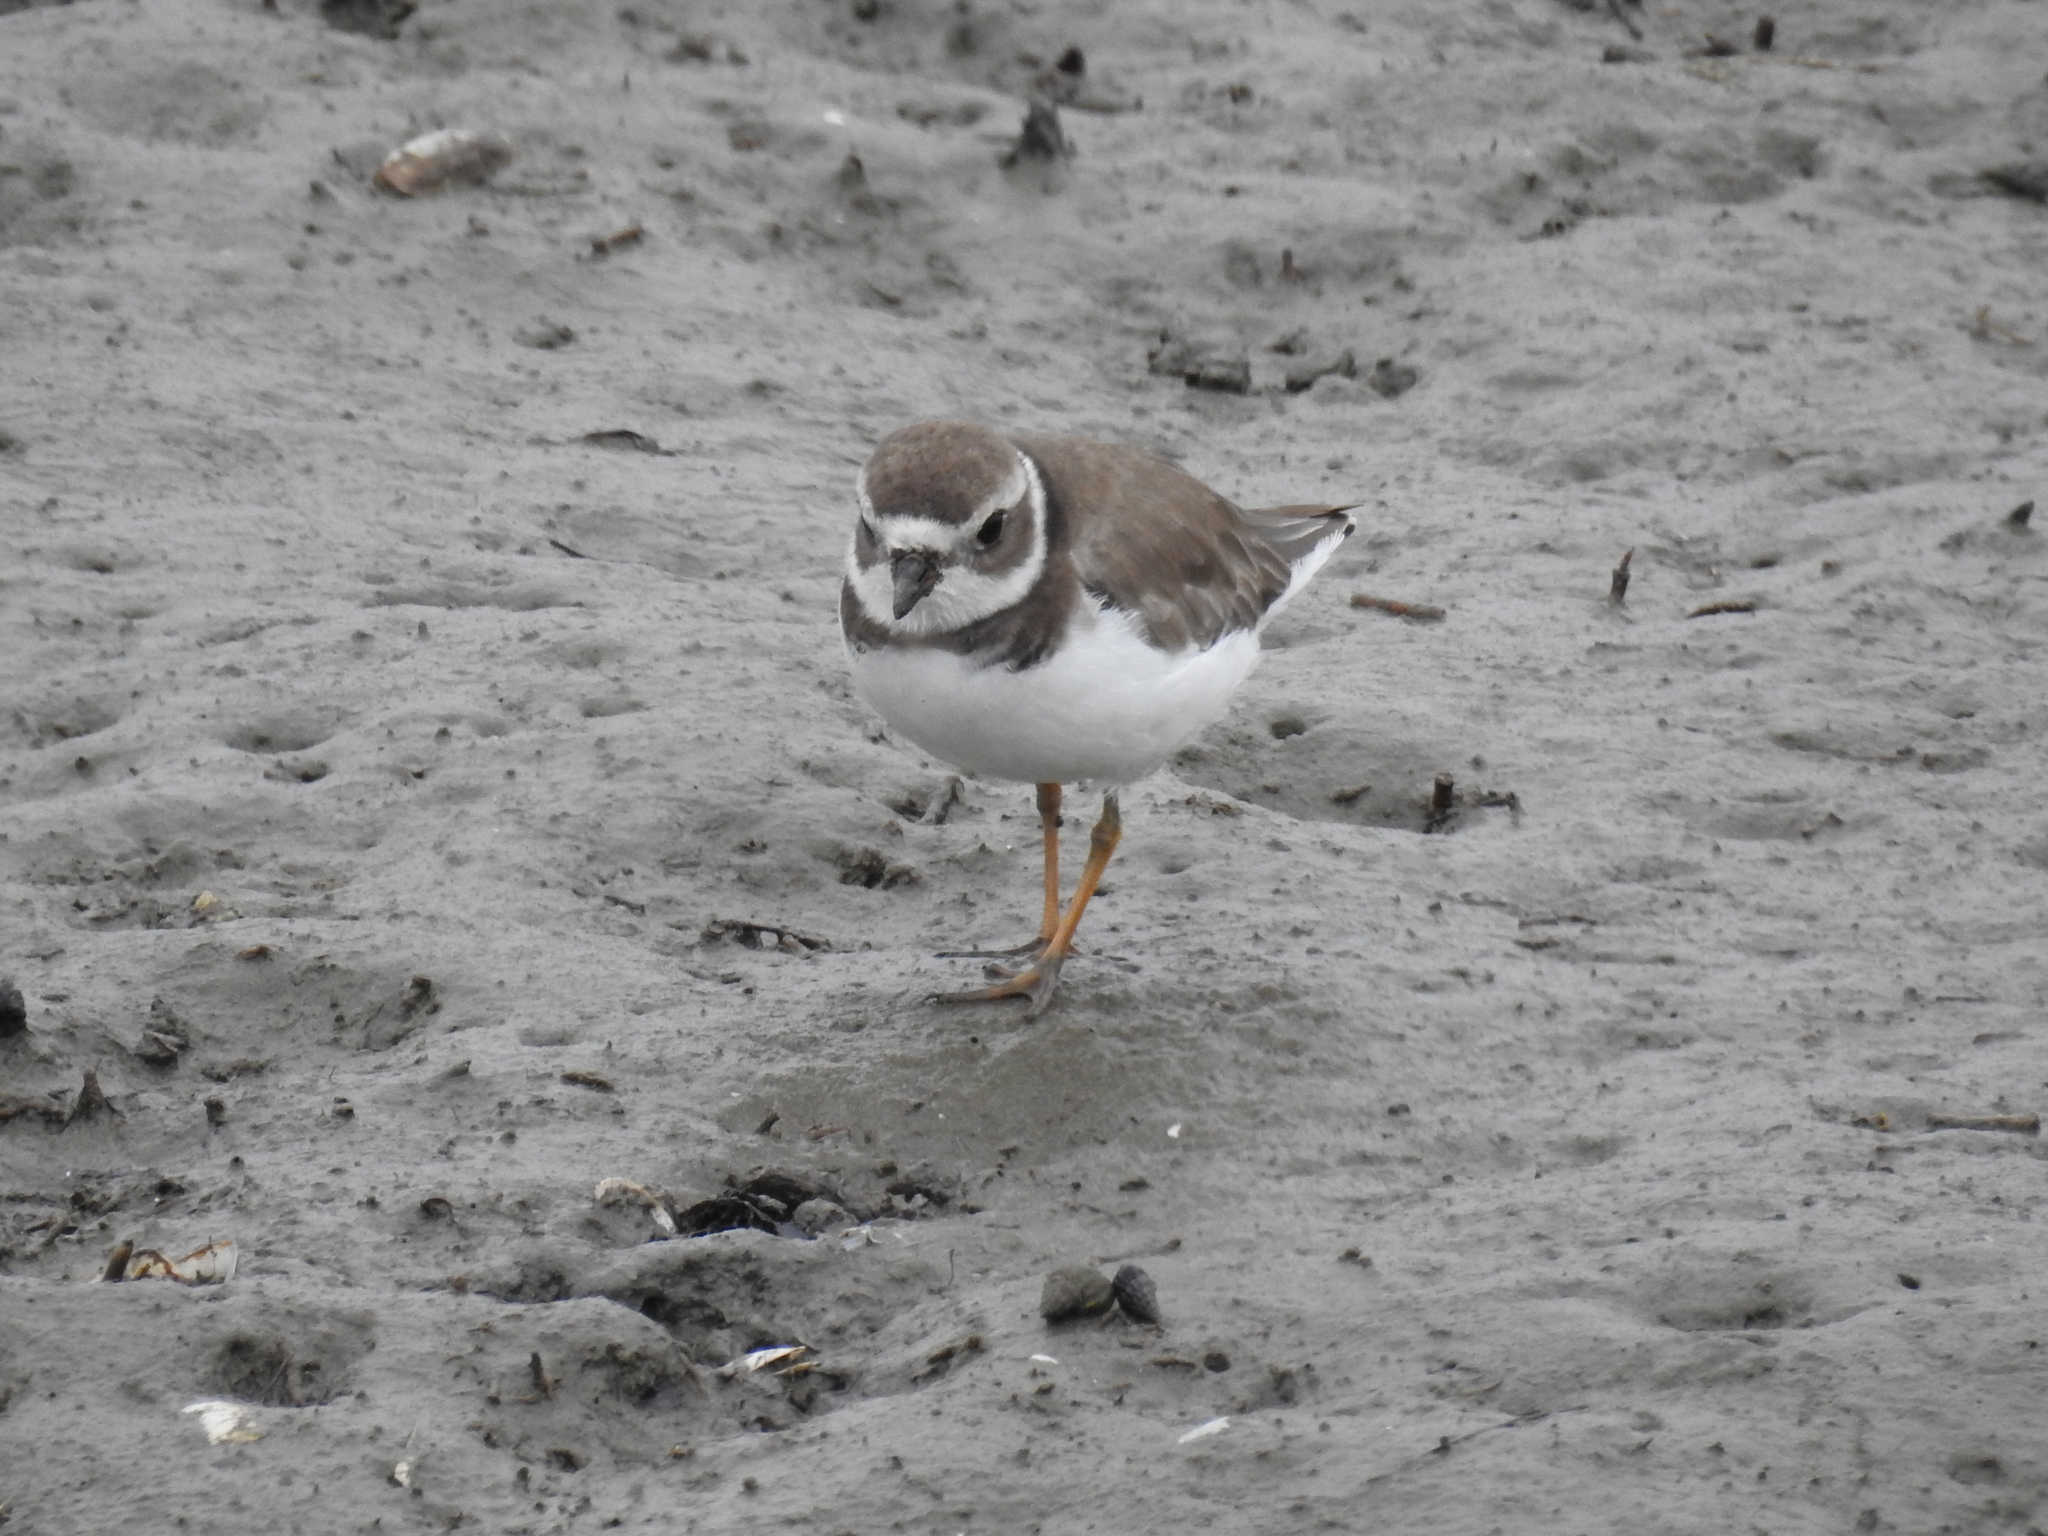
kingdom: Animalia
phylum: Chordata
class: Aves
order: Charadriiformes
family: Charadriidae
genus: Charadrius
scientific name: Charadrius semipalmatus
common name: Semipalmated plover
